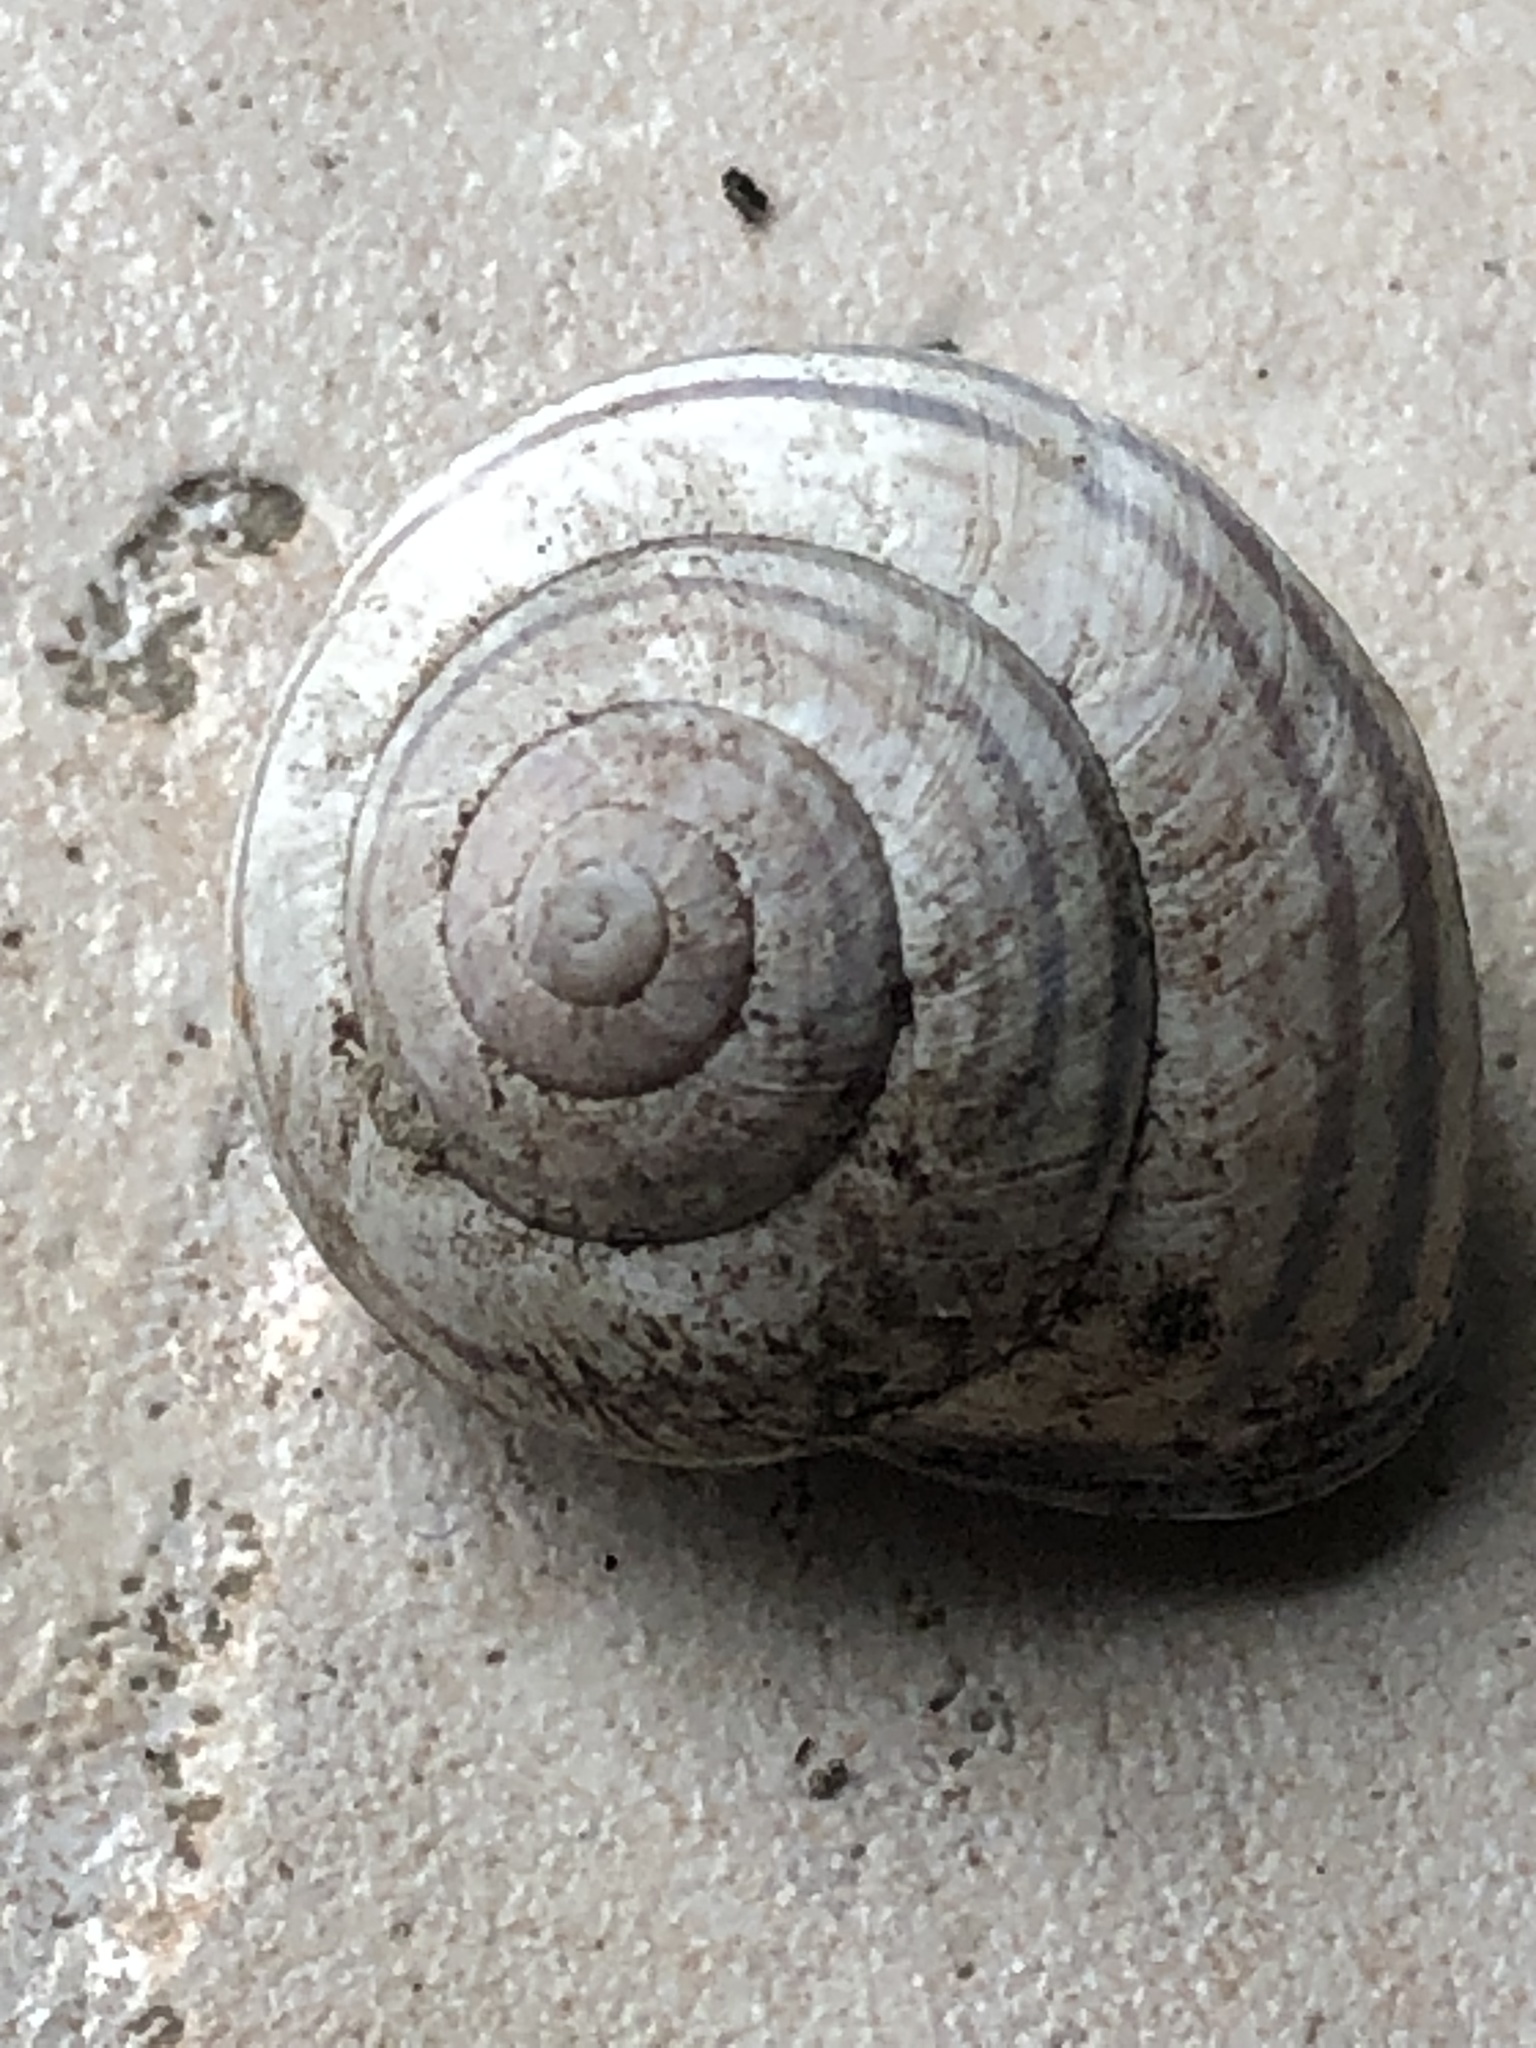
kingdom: Animalia
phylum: Mollusca
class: Gastropoda
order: Stylommatophora
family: Helicidae
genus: Cepaea
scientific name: Cepaea nemoralis
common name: Grovesnail
